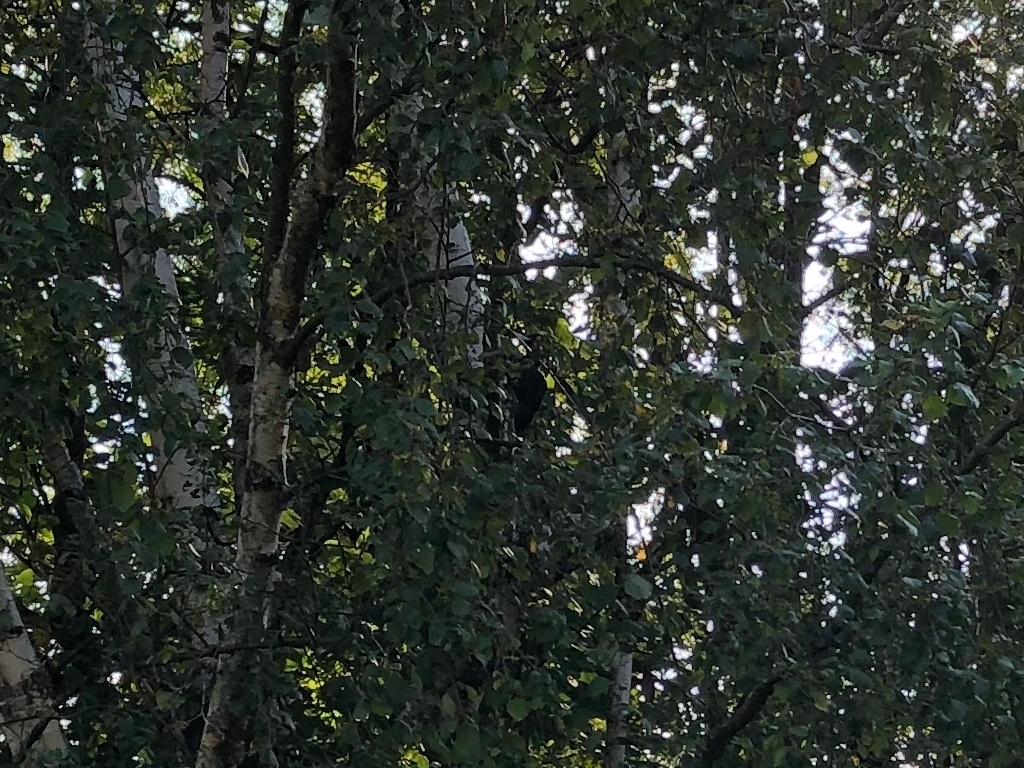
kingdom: Animalia
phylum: Chordata
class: Aves
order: Piciformes
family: Picidae
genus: Dryocopus
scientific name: Dryocopus martius
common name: Black woodpecker
